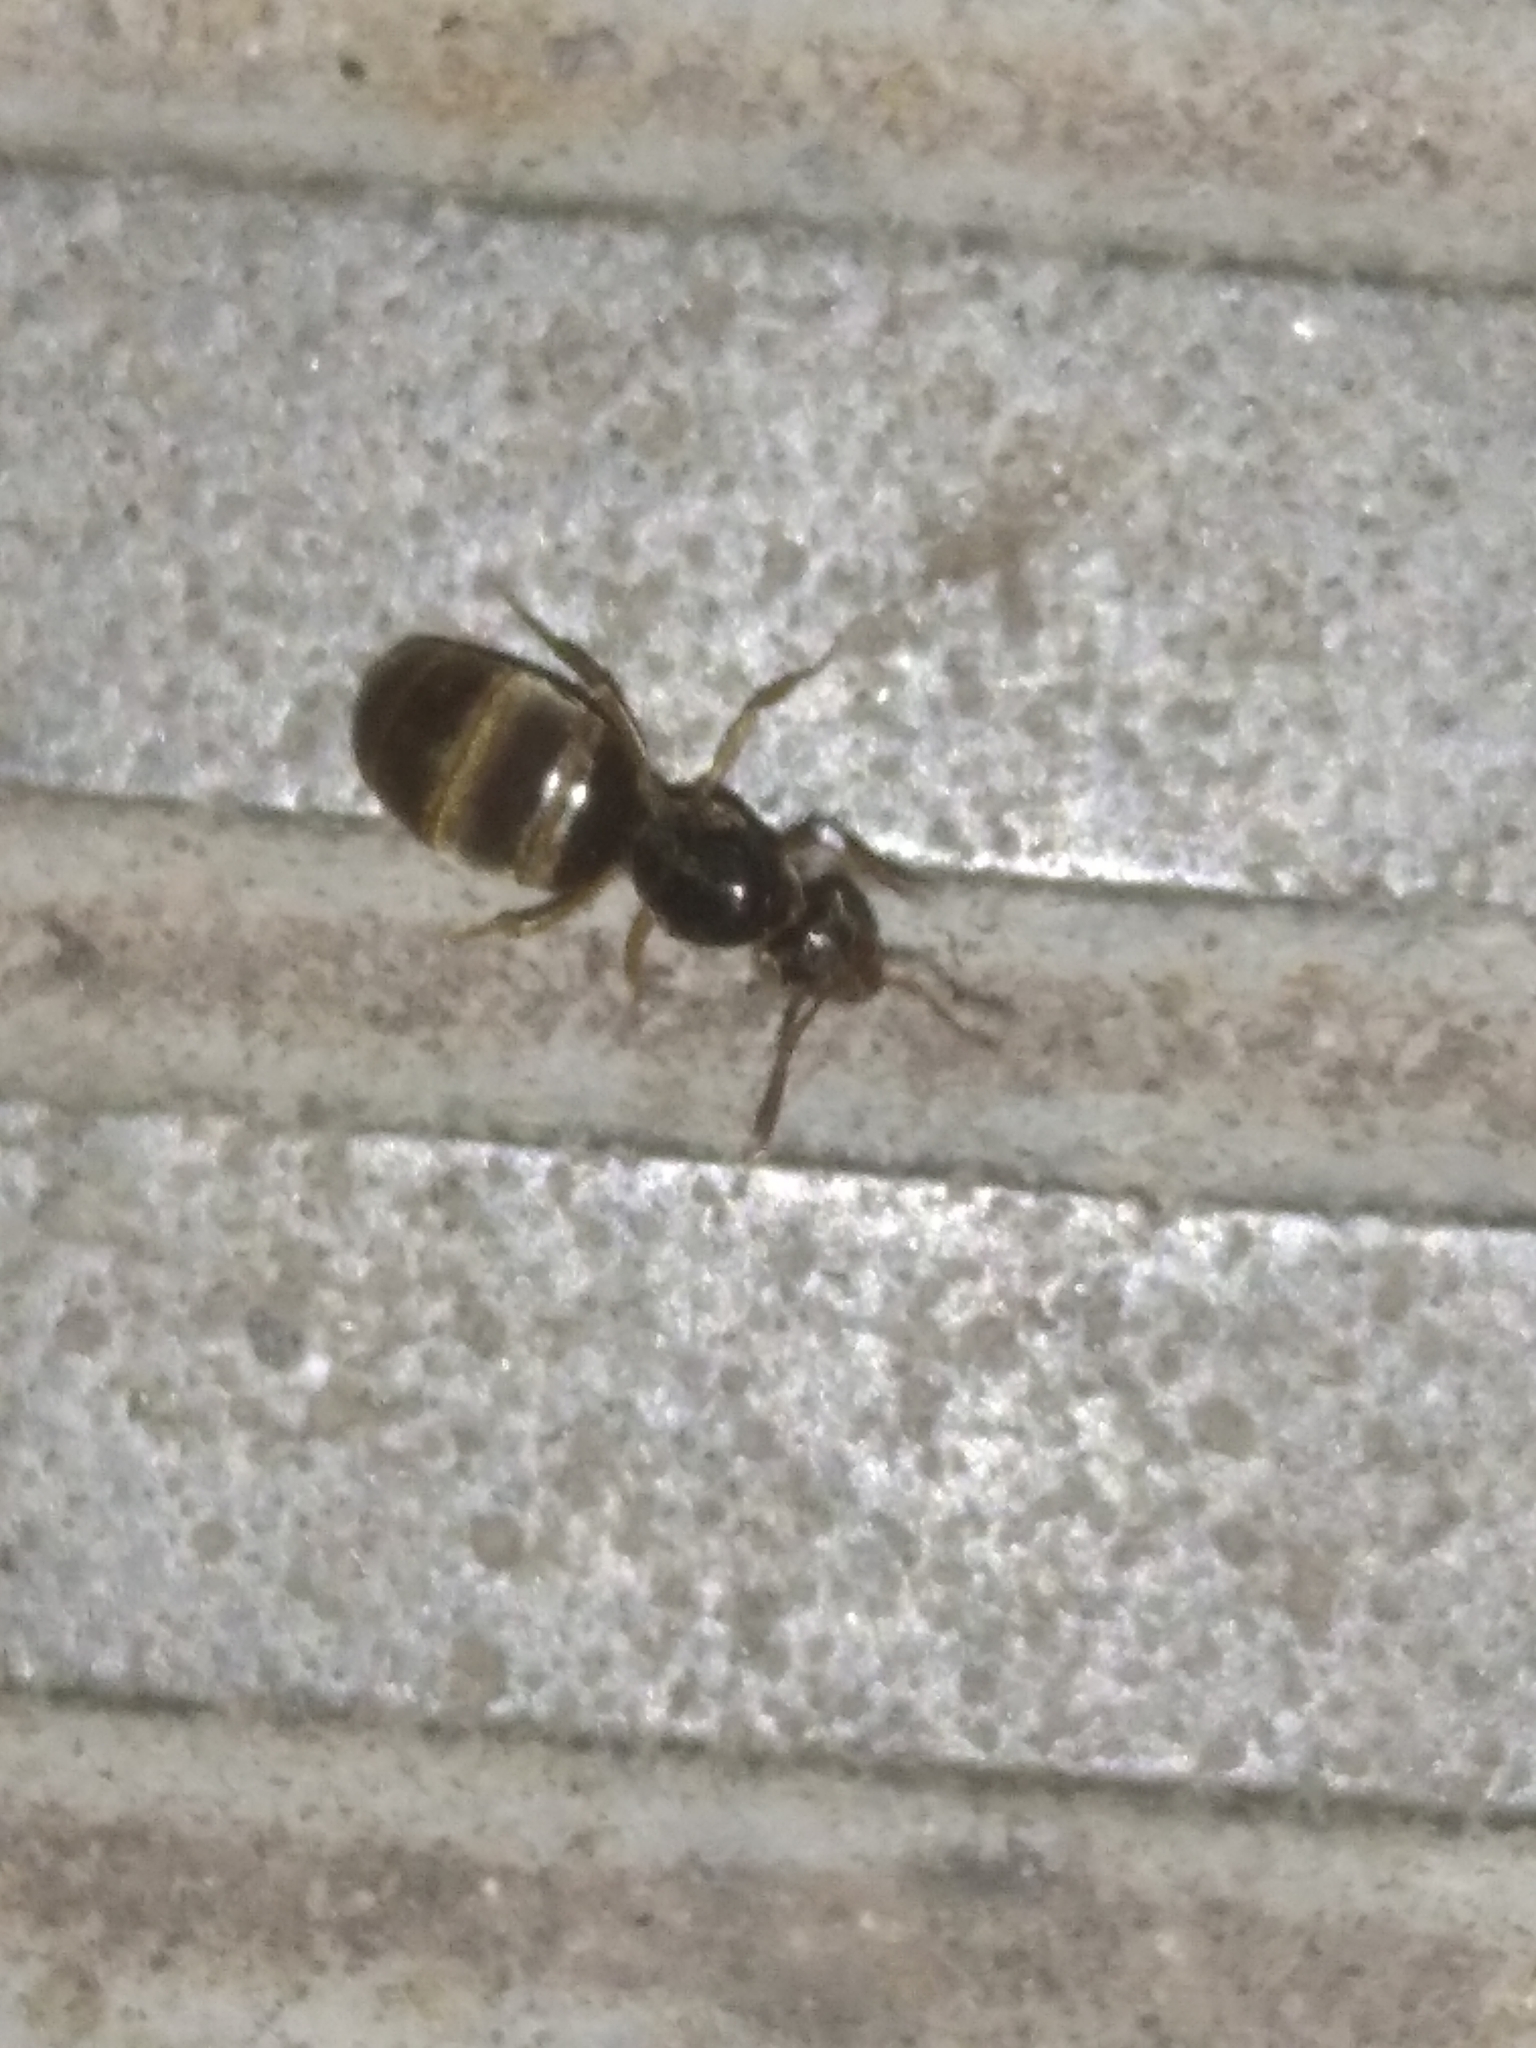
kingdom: Animalia
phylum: Arthropoda
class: Insecta
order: Hymenoptera
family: Formicidae
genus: Lasius
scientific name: Lasius
